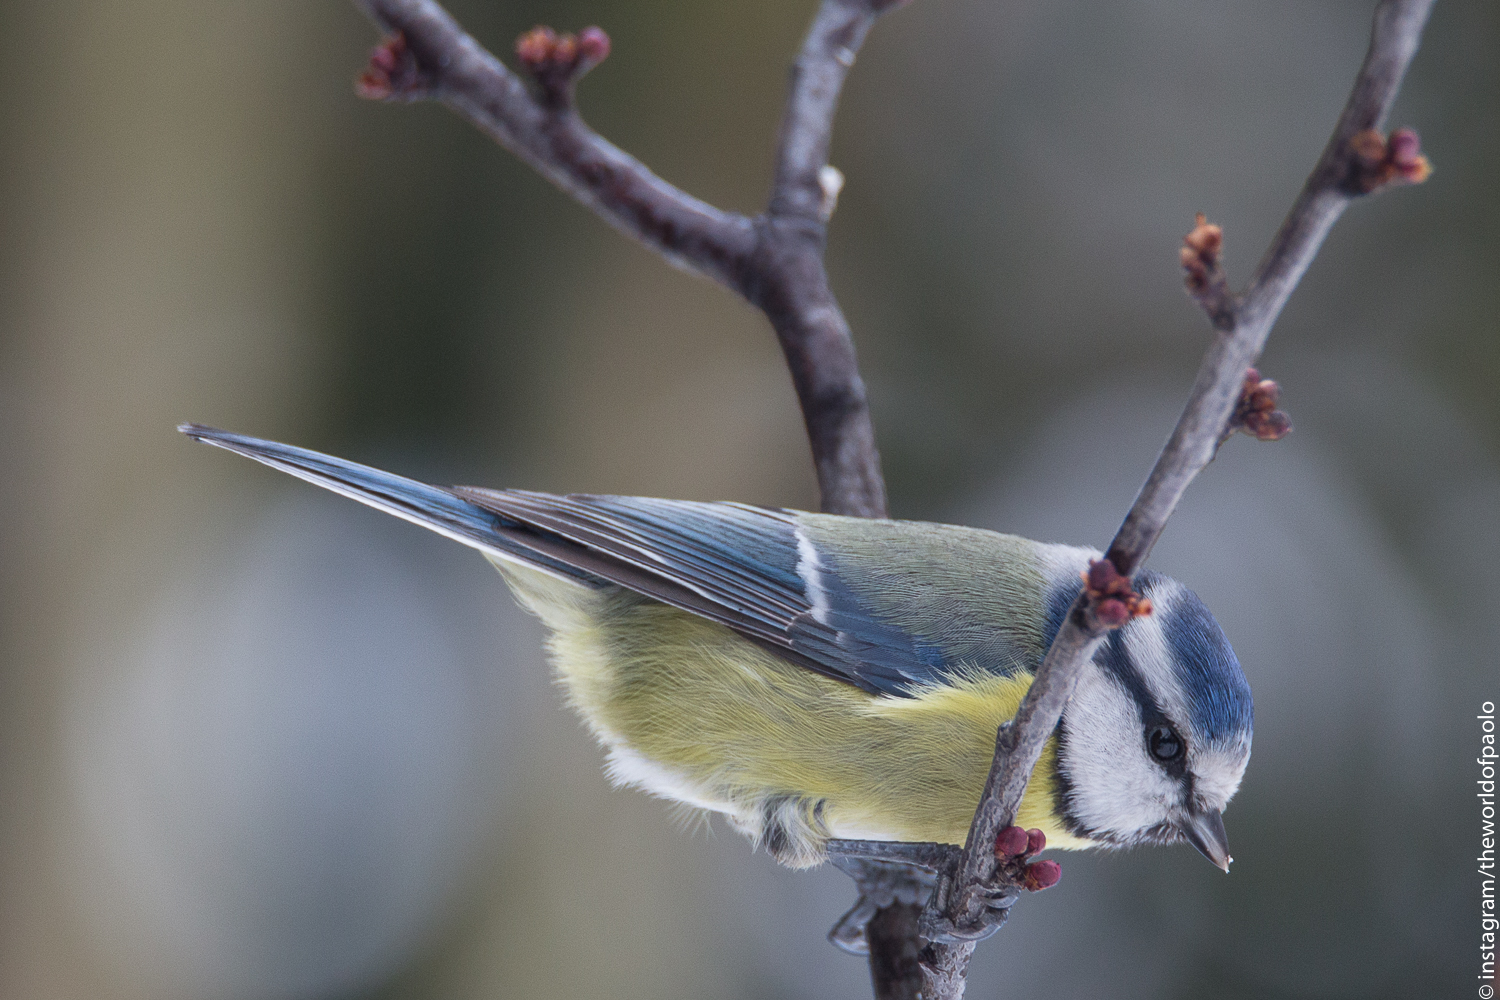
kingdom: Animalia
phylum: Chordata
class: Aves
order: Passeriformes
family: Paridae
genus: Cyanistes
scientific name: Cyanistes caeruleus
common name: Eurasian blue tit
